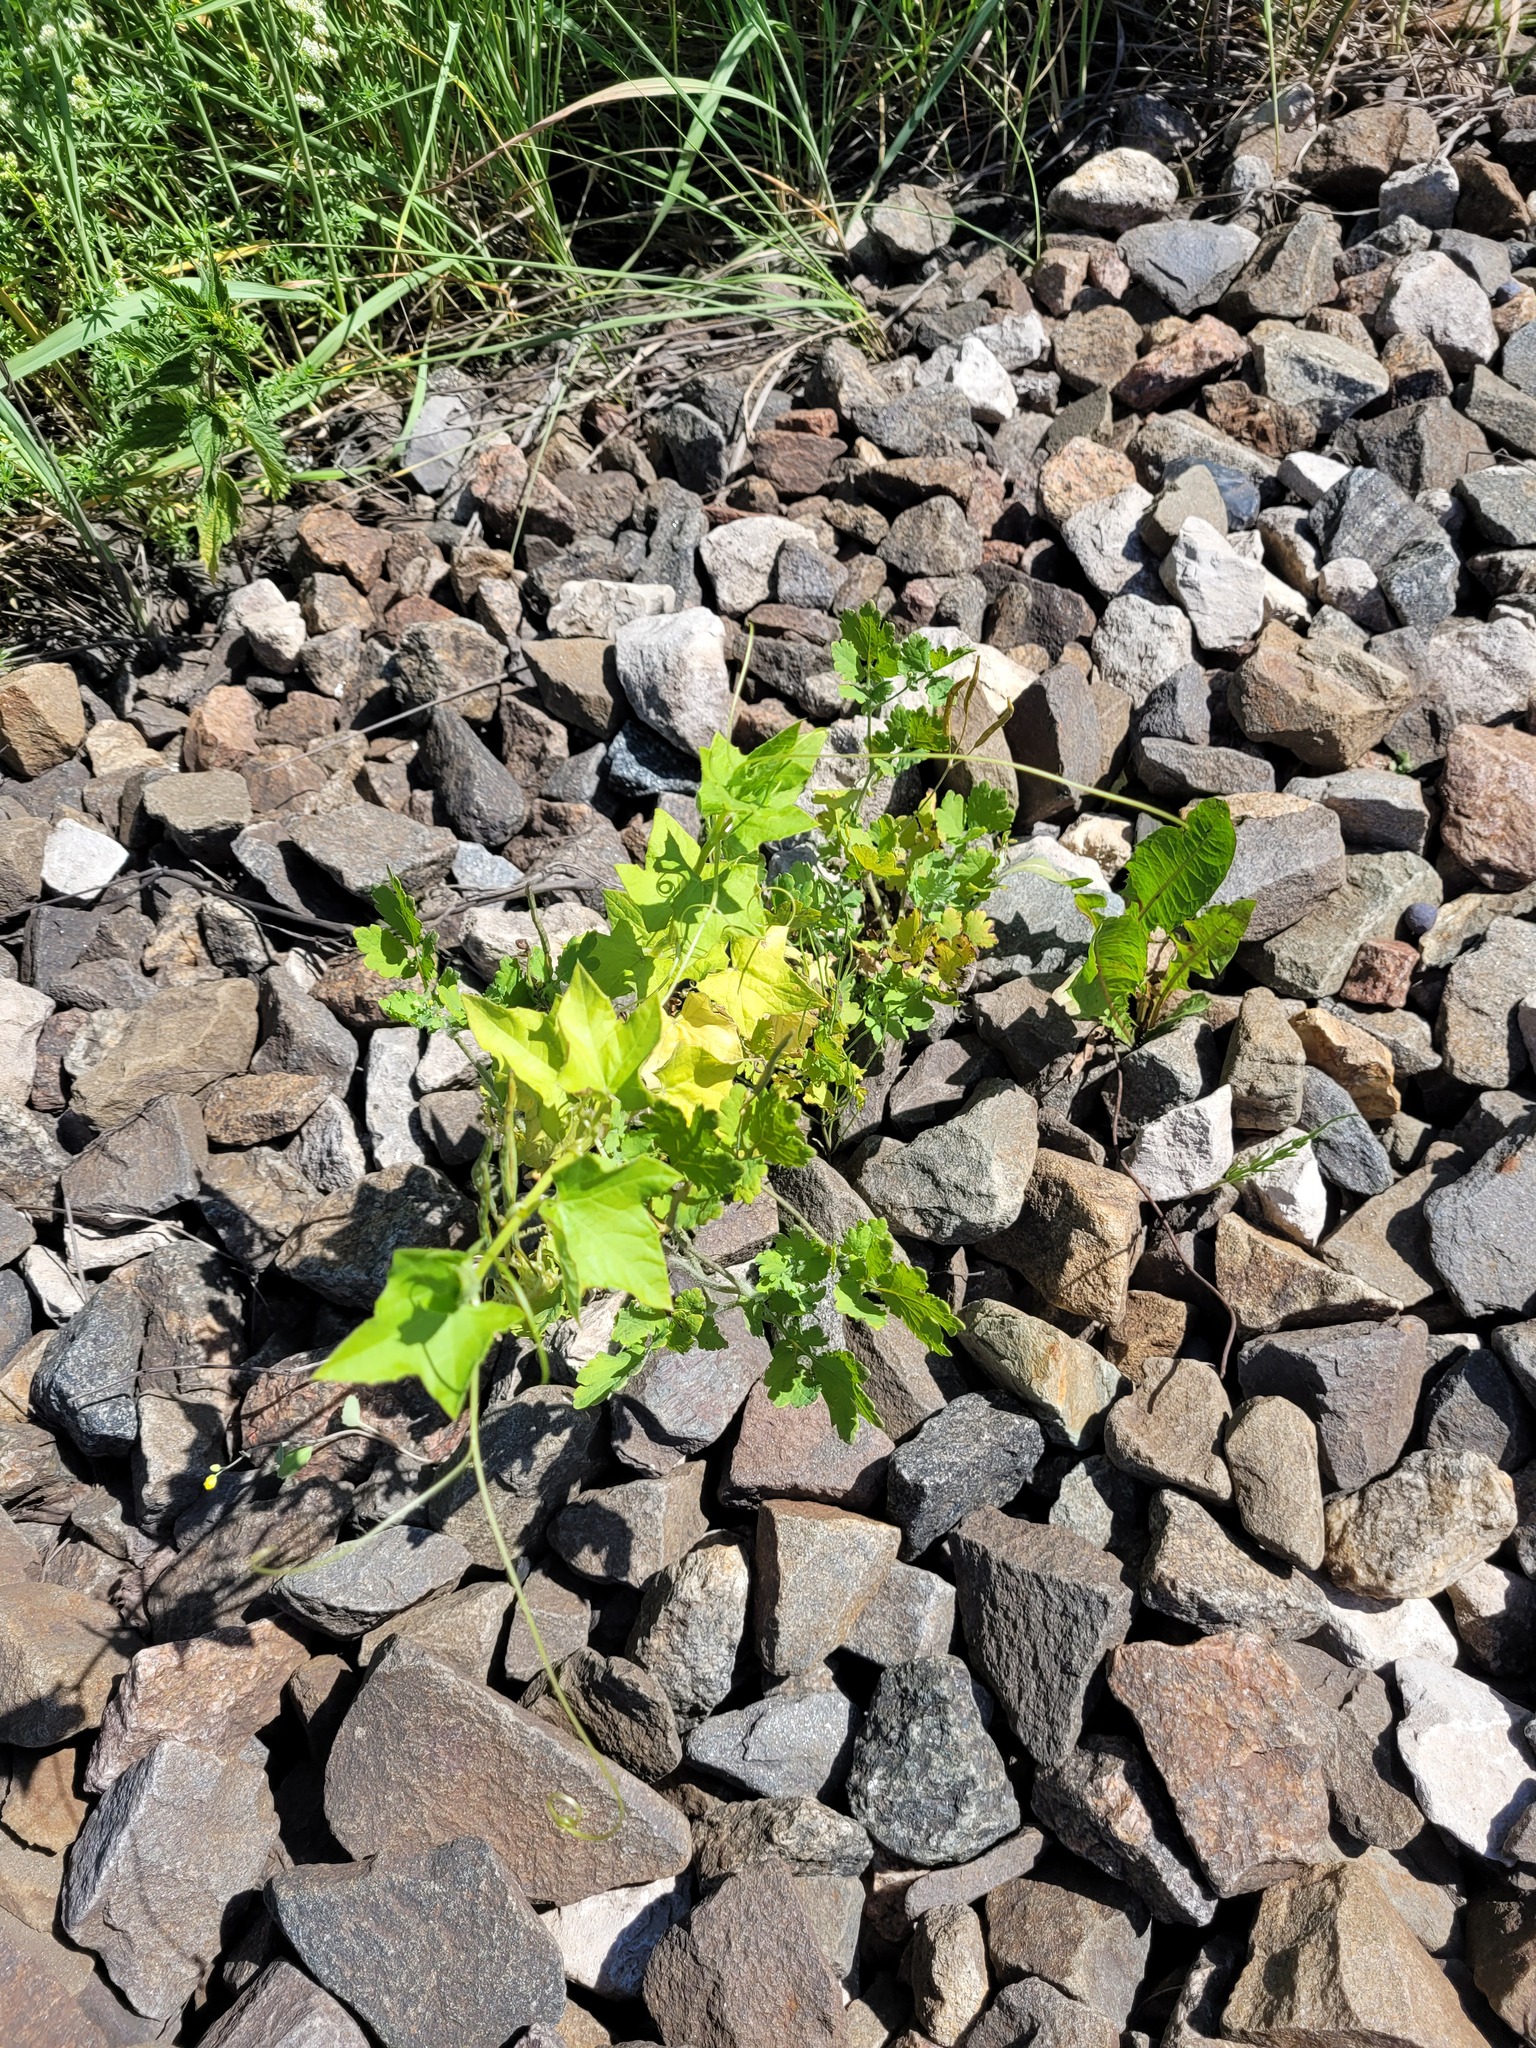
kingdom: Plantae
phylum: Tracheophyta
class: Magnoliopsida
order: Cucurbitales
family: Cucurbitaceae
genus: Echinocystis
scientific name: Echinocystis lobata
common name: Wild cucumber
